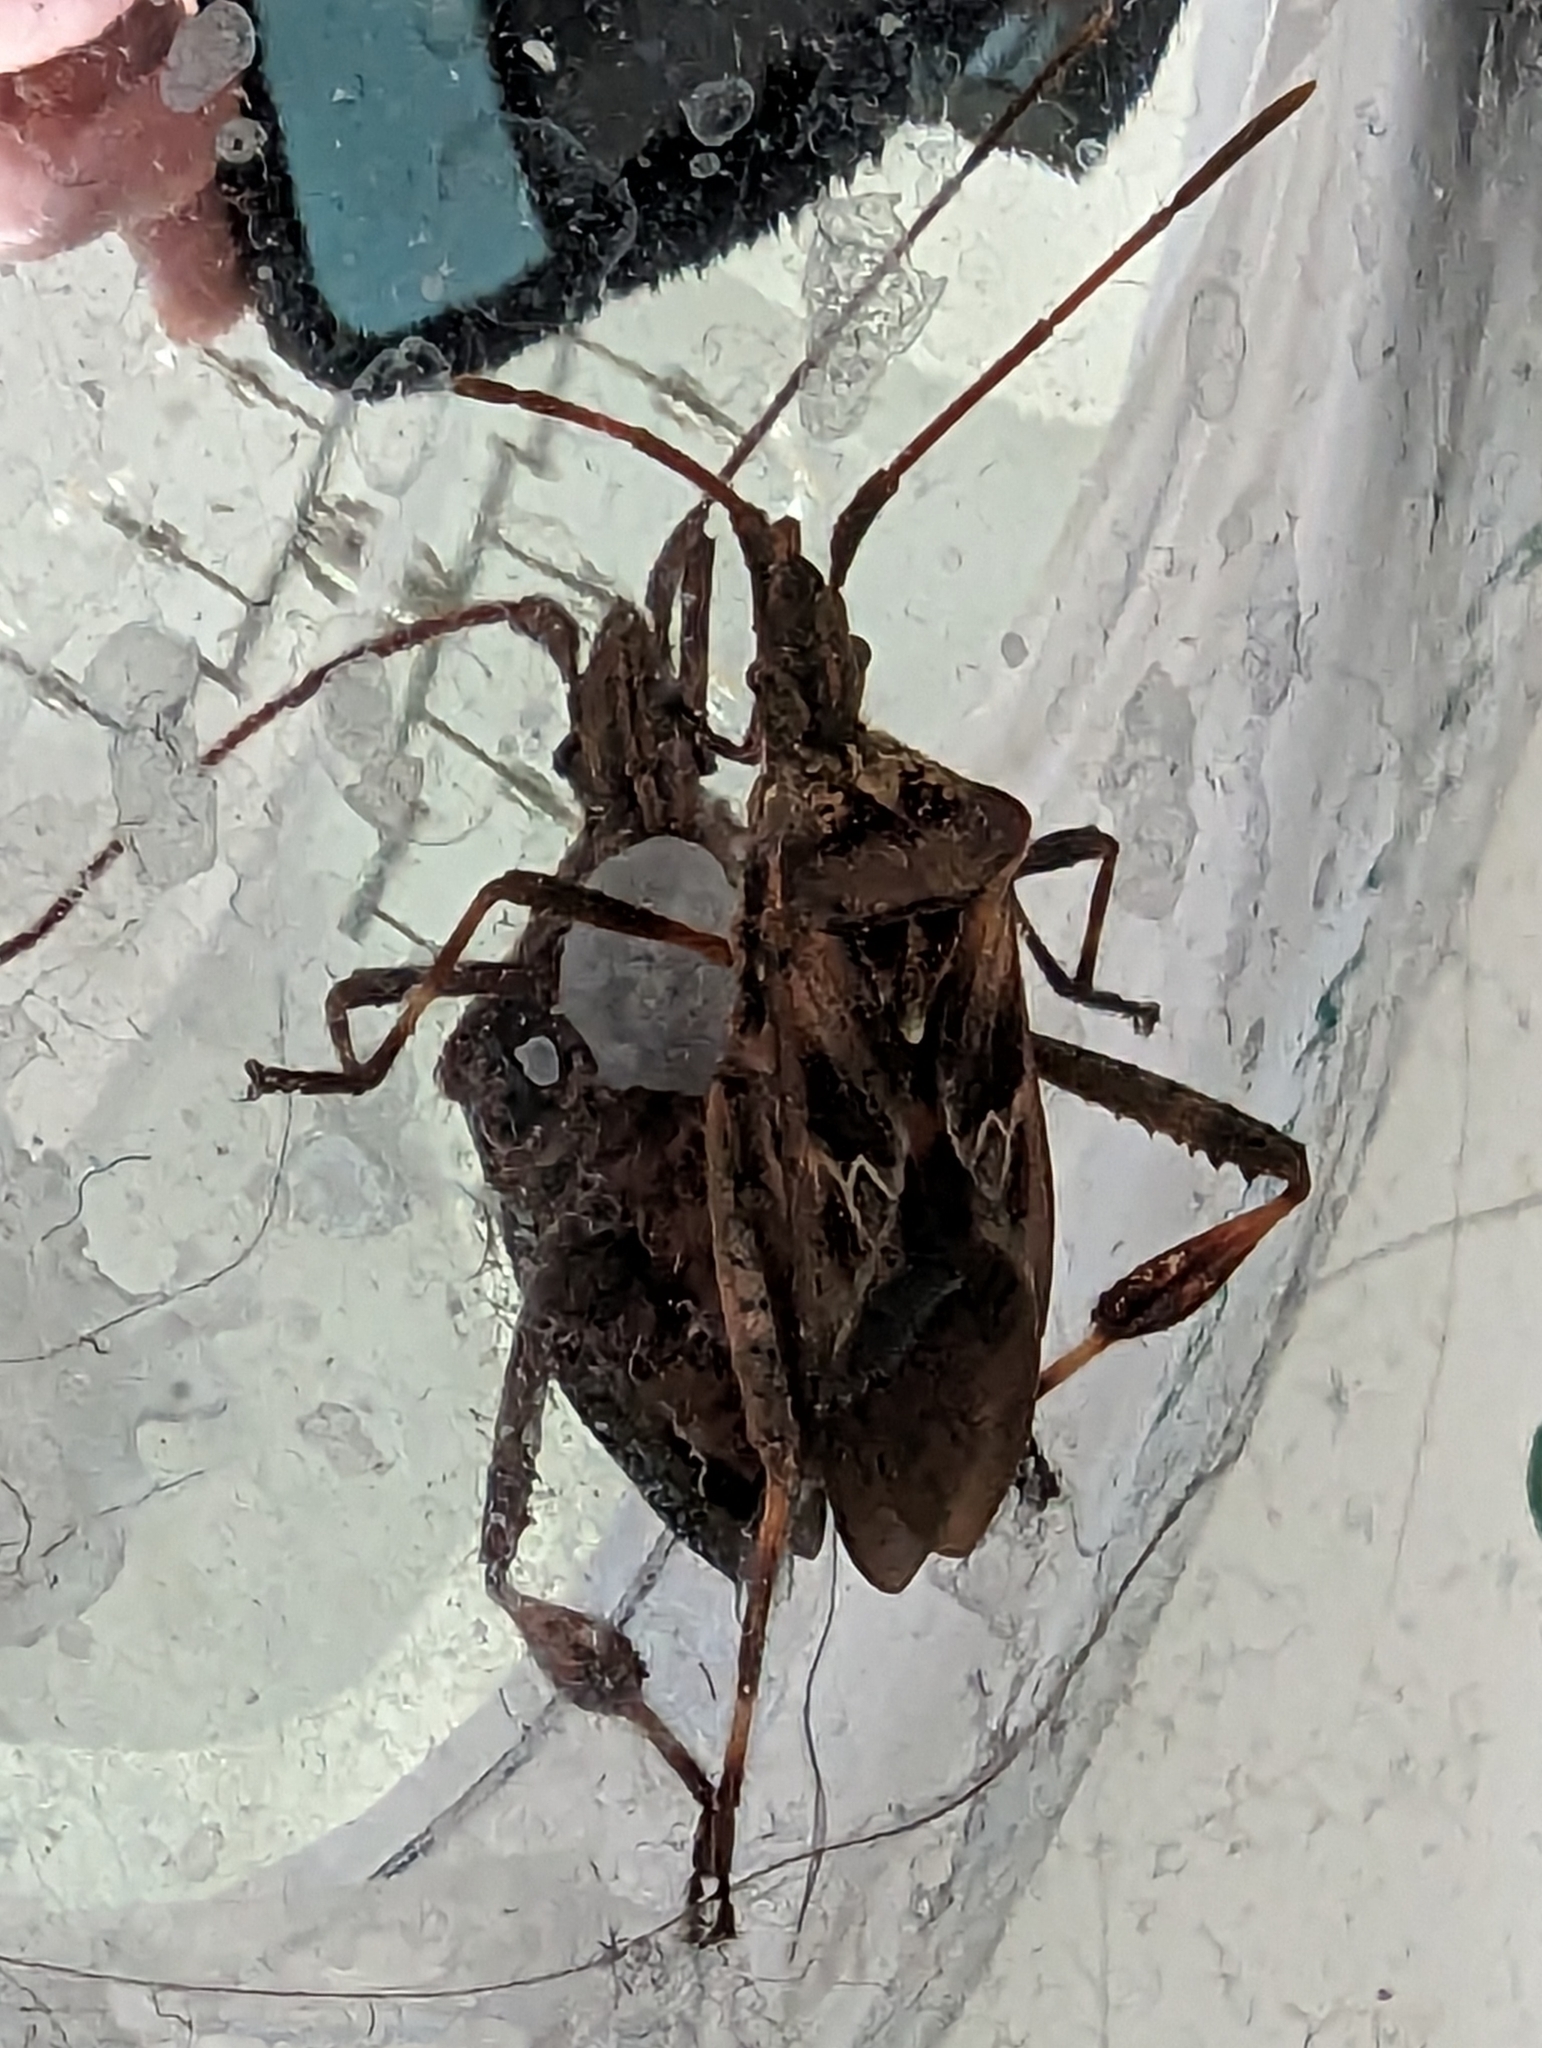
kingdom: Animalia
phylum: Arthropoda
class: Insecta
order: Hemiptera
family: Coreidae
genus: Leptoglossus
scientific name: Leptoglossus occidentalis
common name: Western conifer-seed bug
